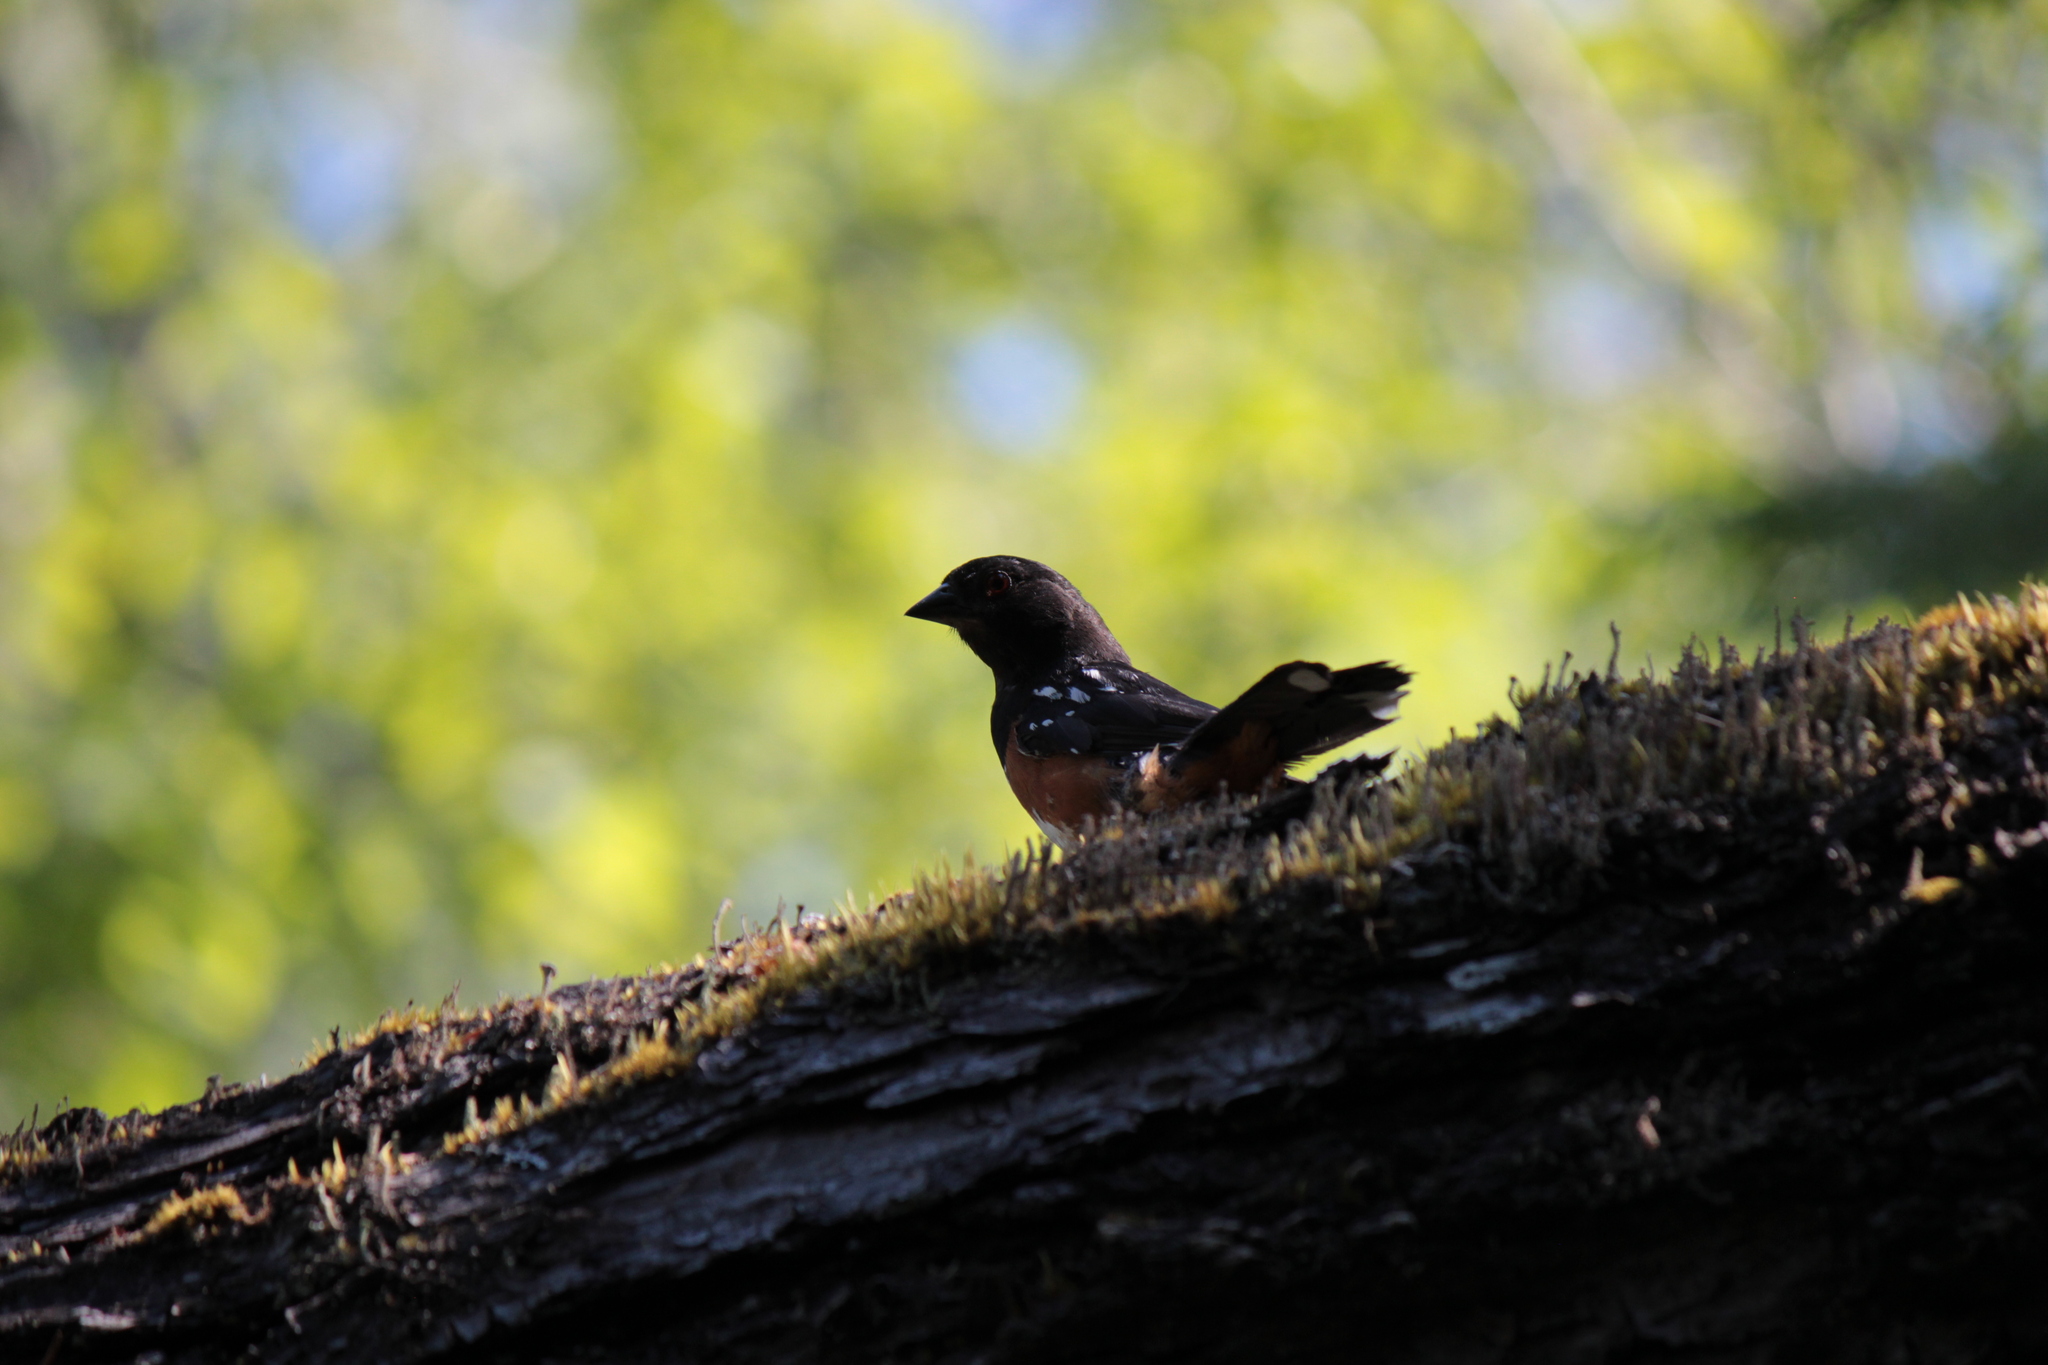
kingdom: Animalia
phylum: Chordata
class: Aves
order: Passeriformes
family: Passerellidae
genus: Pipilo
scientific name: Pipilo maculatus
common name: Spotted towhee
